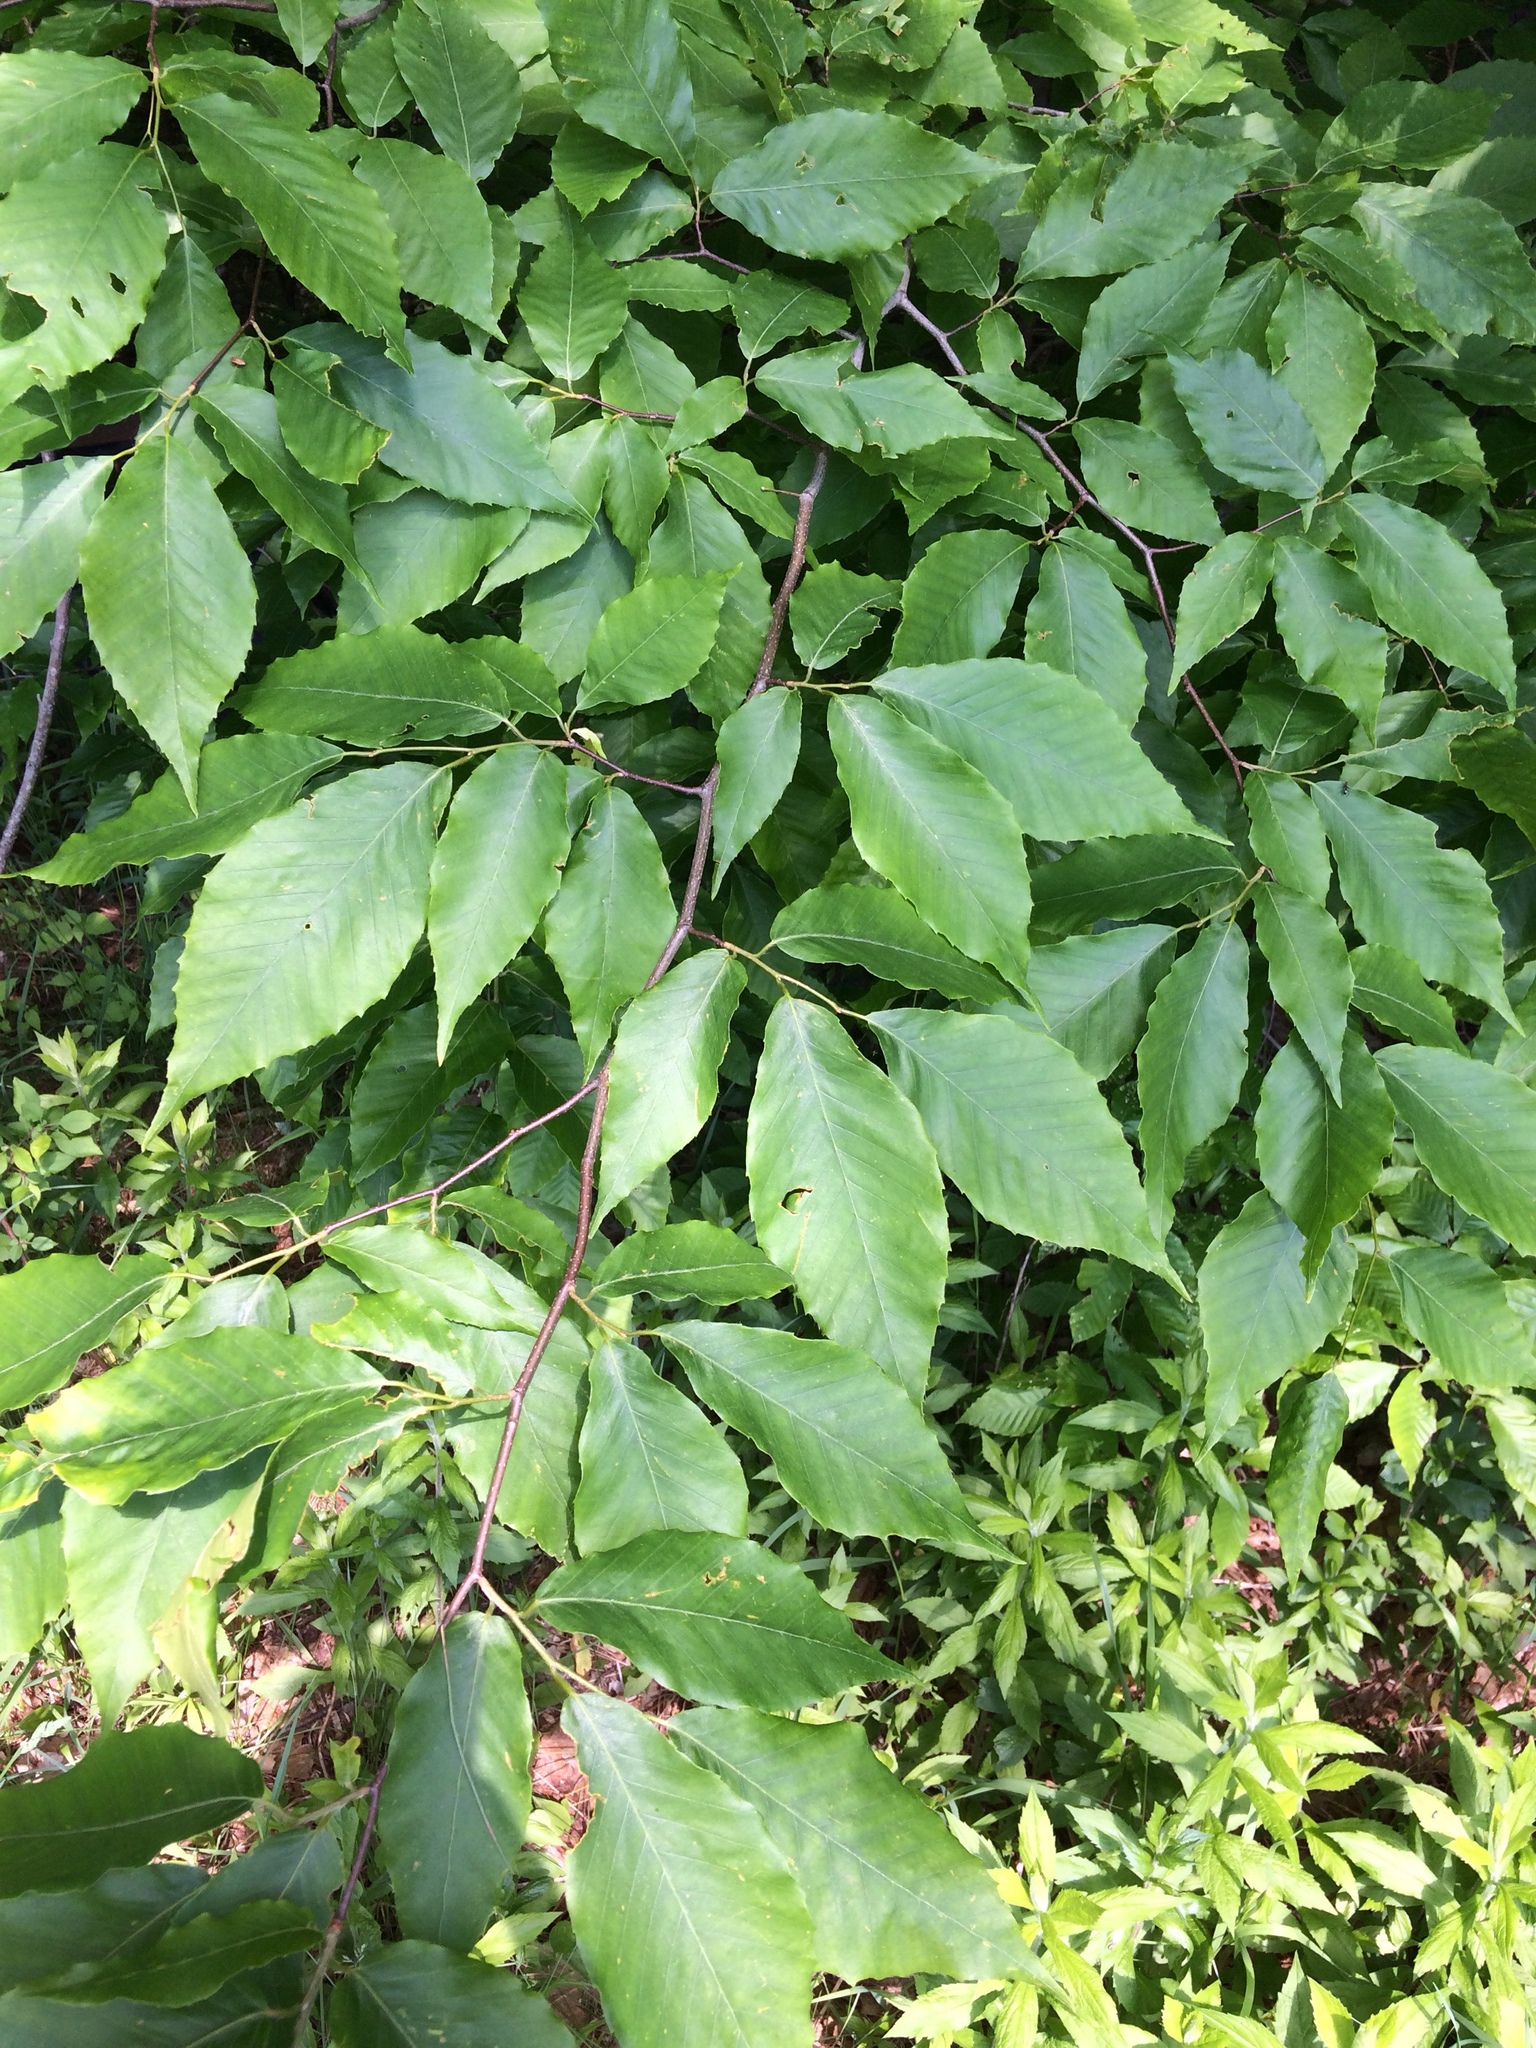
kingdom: Plantae
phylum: Tracheophyta
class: Magnoliopsida
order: Fagales
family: Fagaceae
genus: Fagus
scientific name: Fagus grandifolia
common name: American beech
